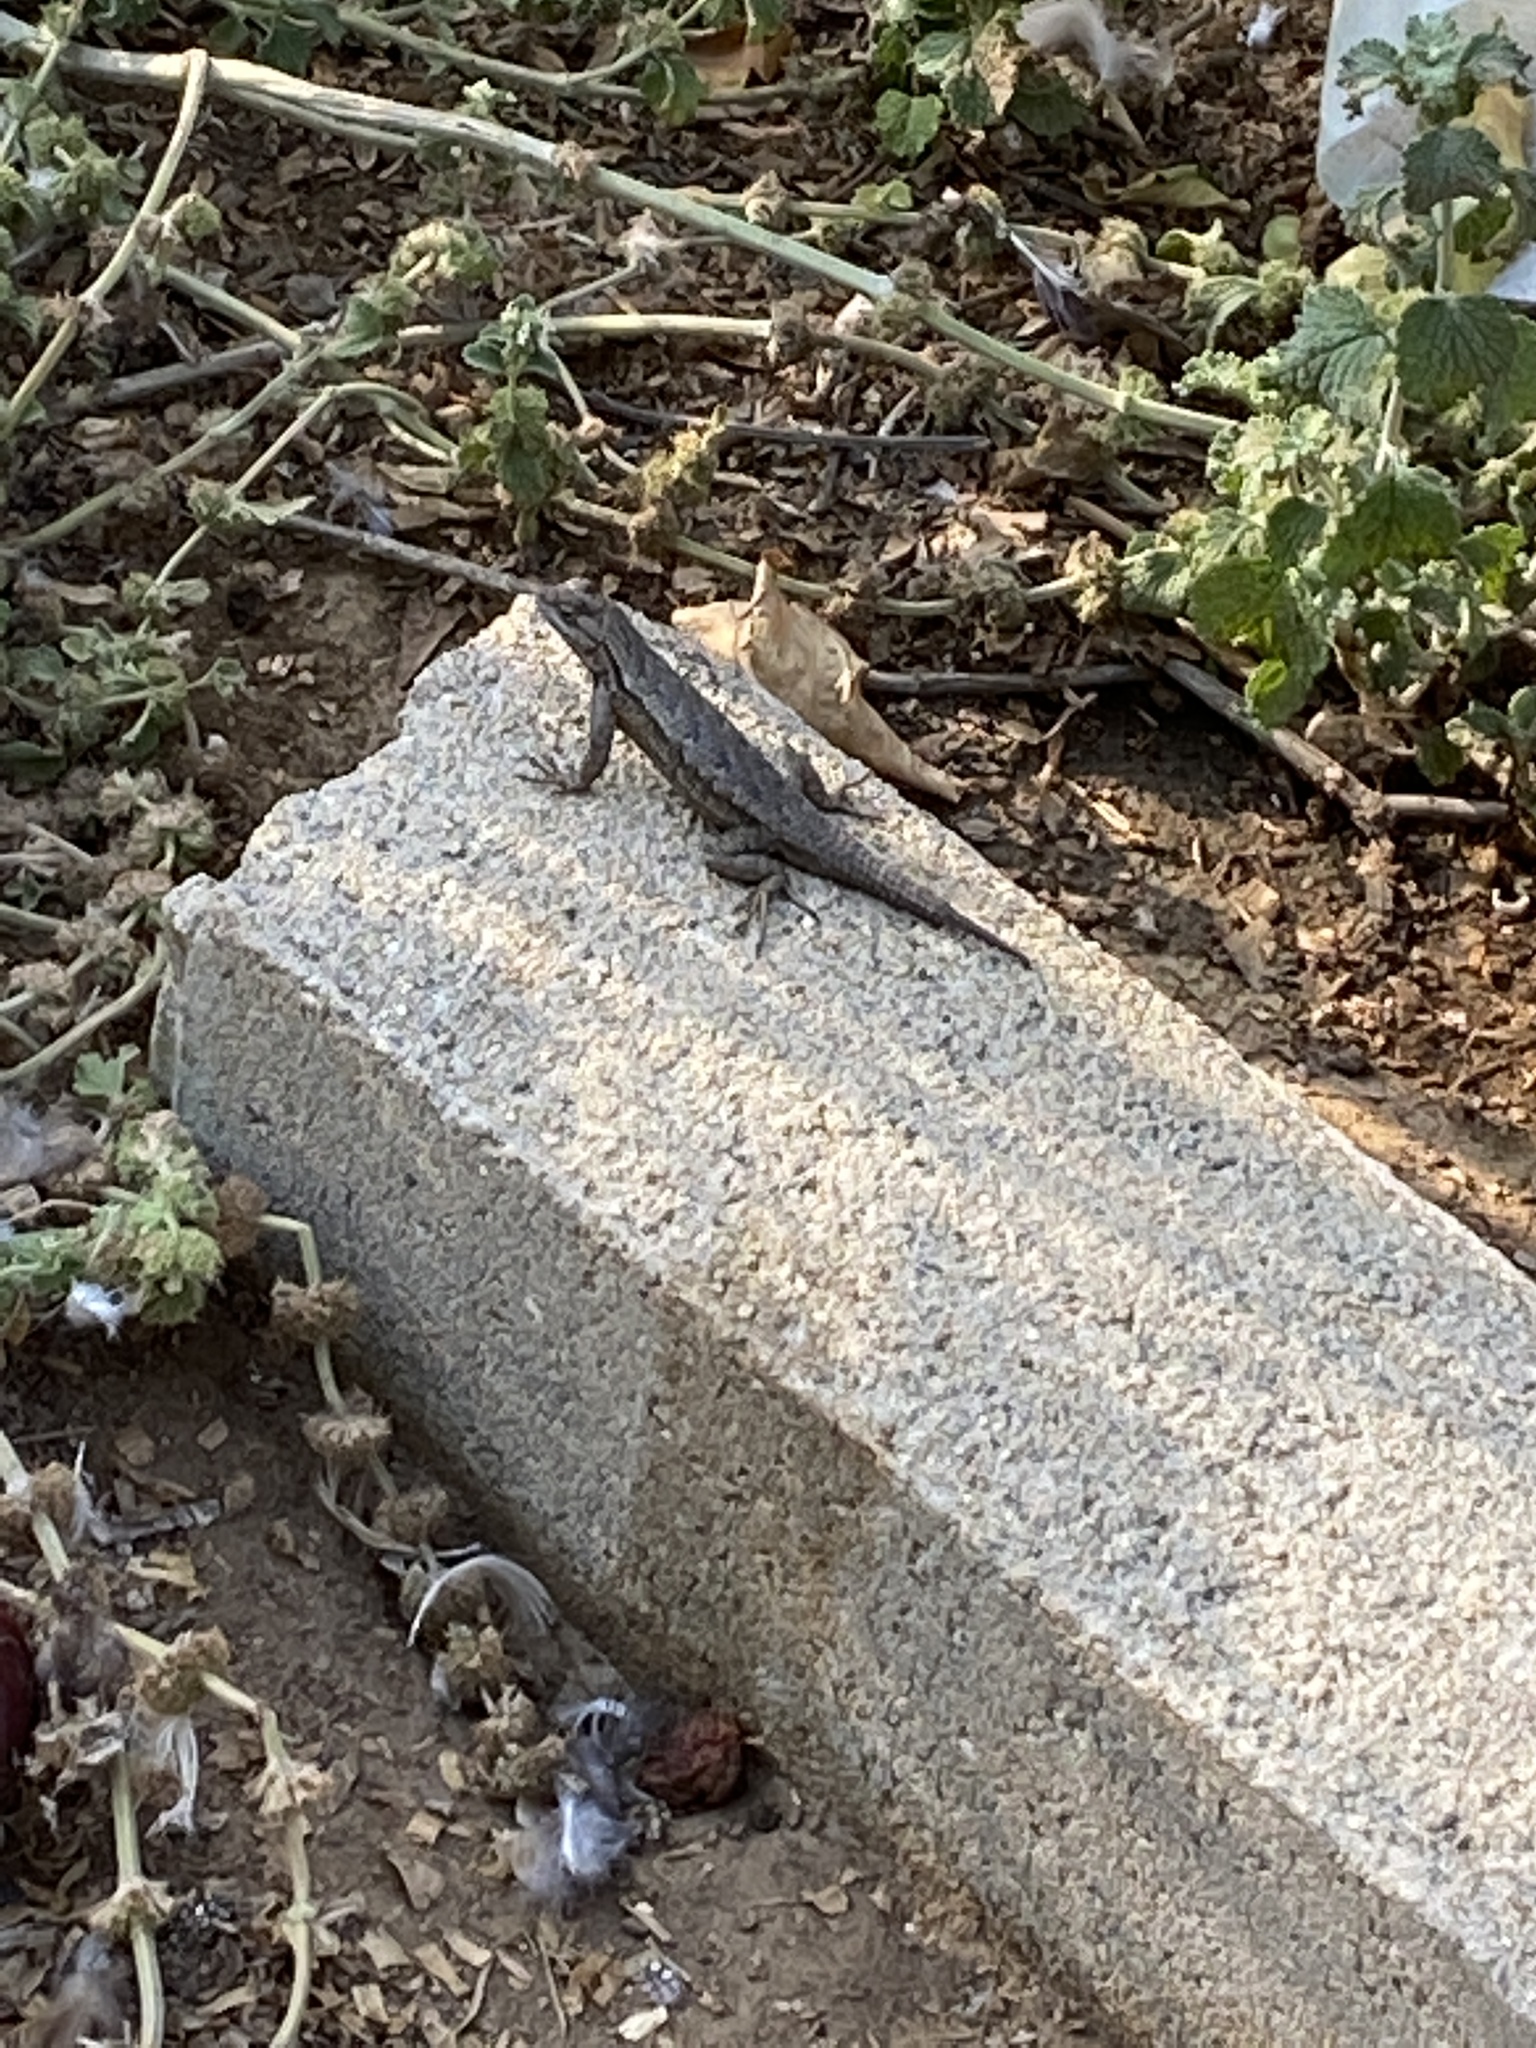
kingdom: Animalia
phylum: Chordata
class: Squamata
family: Phrynosomatidae
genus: Sceloporus
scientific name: Sceloporus occidentalis
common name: Western fence lizard
